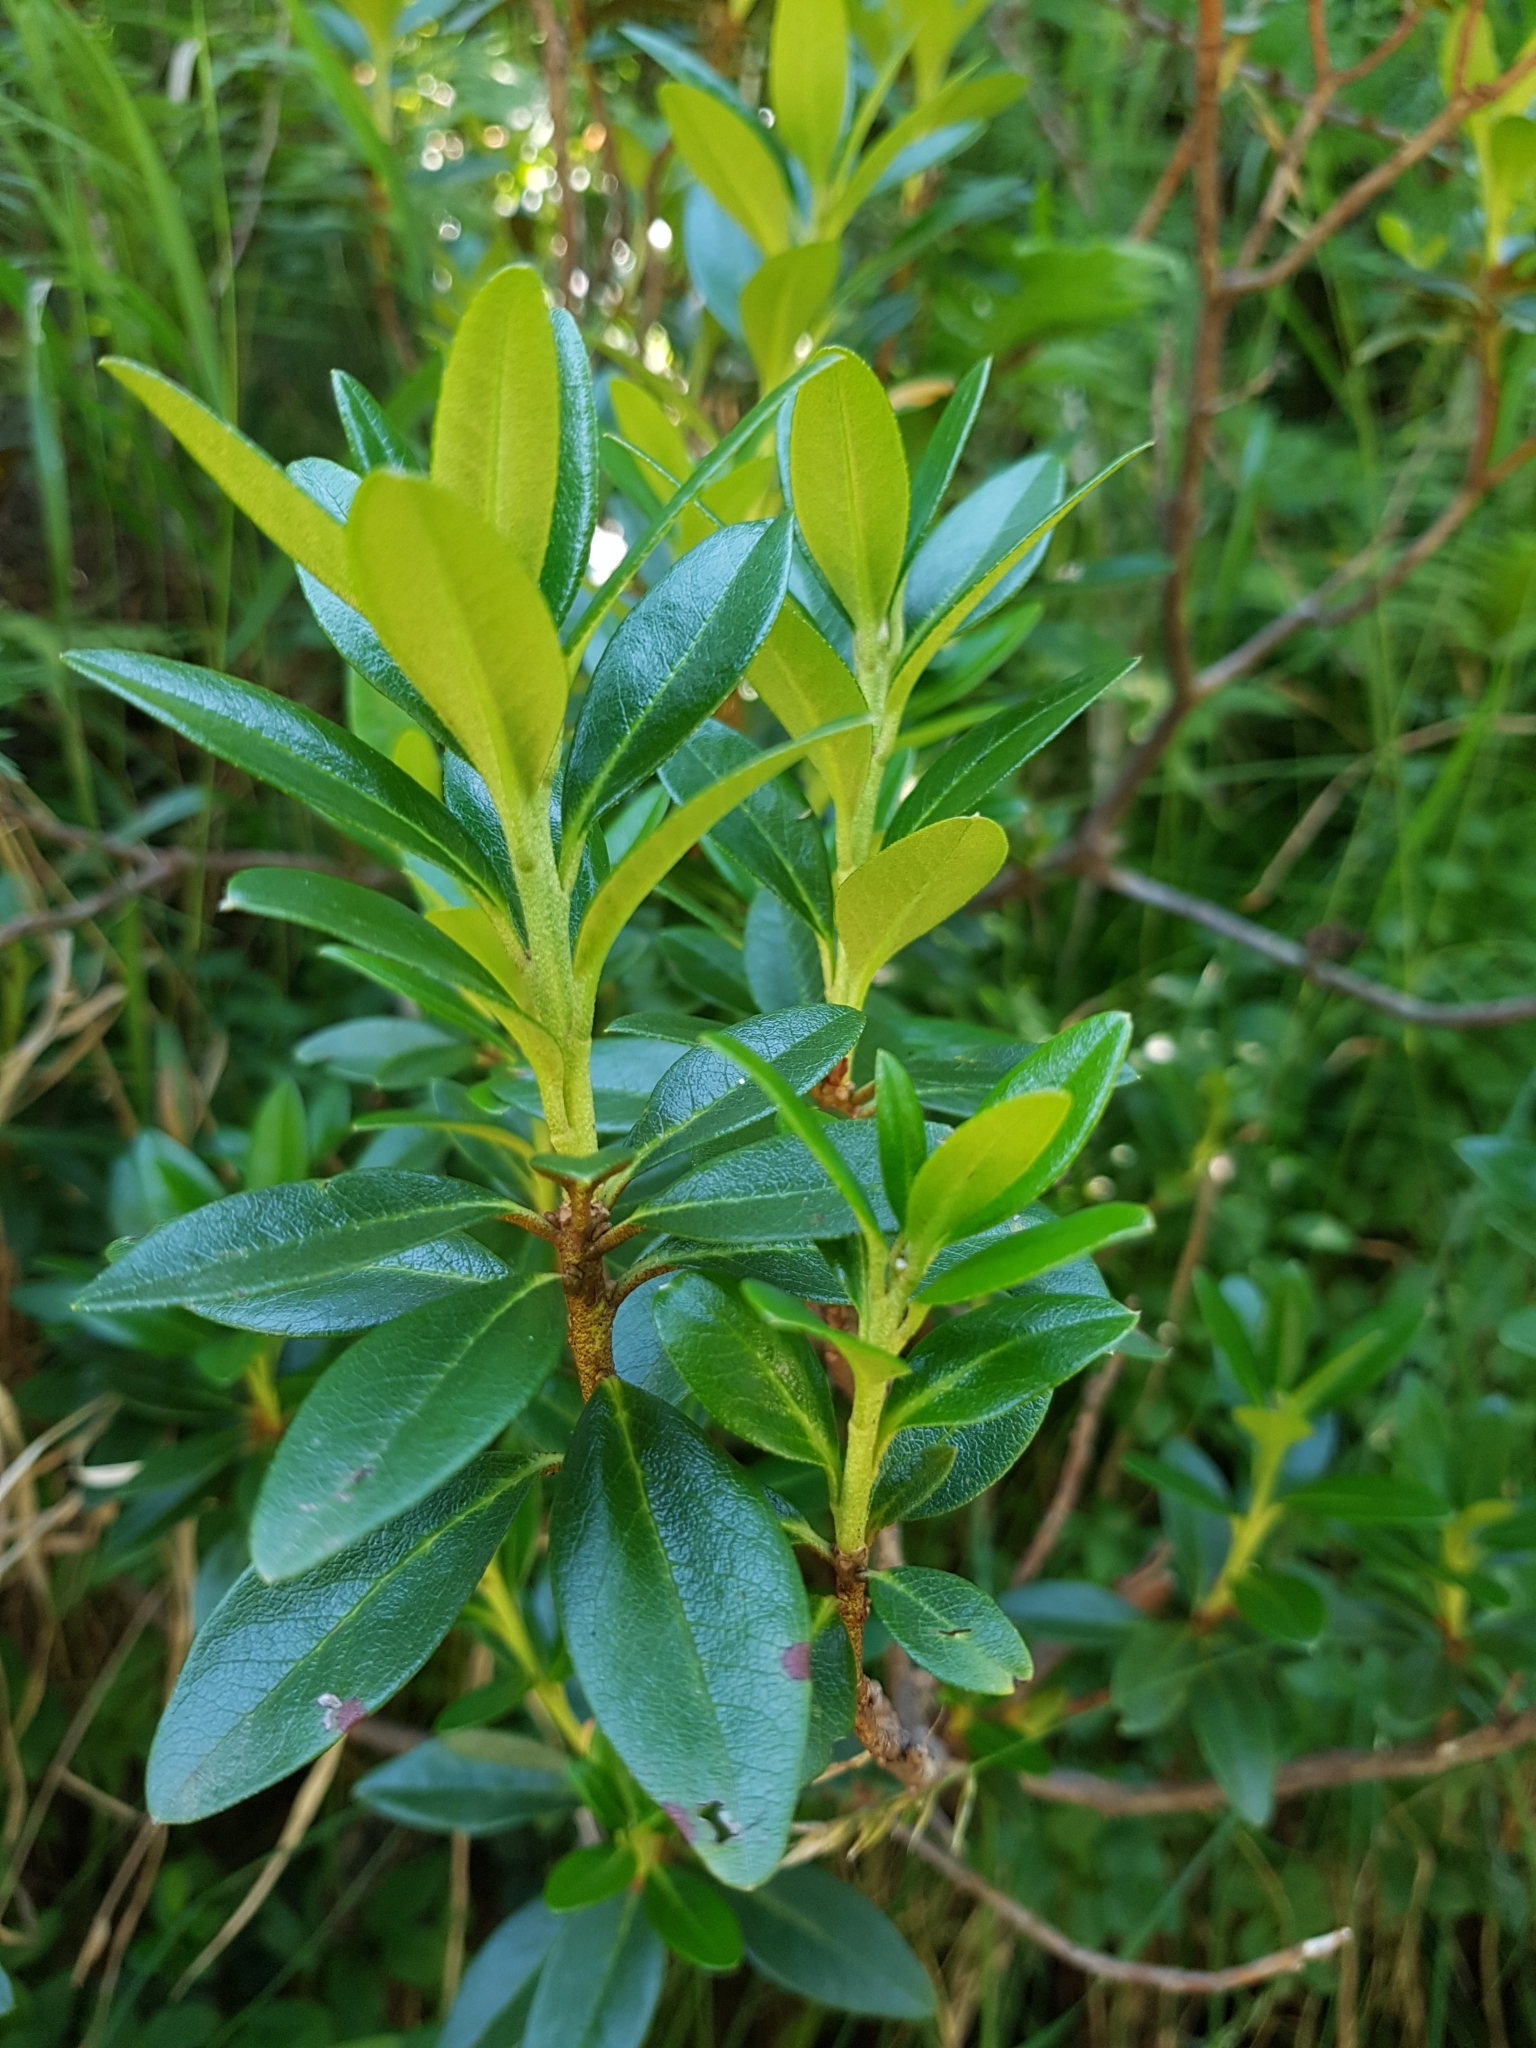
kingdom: Plantae
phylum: Tracheophyta
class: Magnoliopsida
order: Ericales
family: Ericaceae
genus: Rhododendron
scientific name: Rhododendron ferrugineum
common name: Alpenrose
